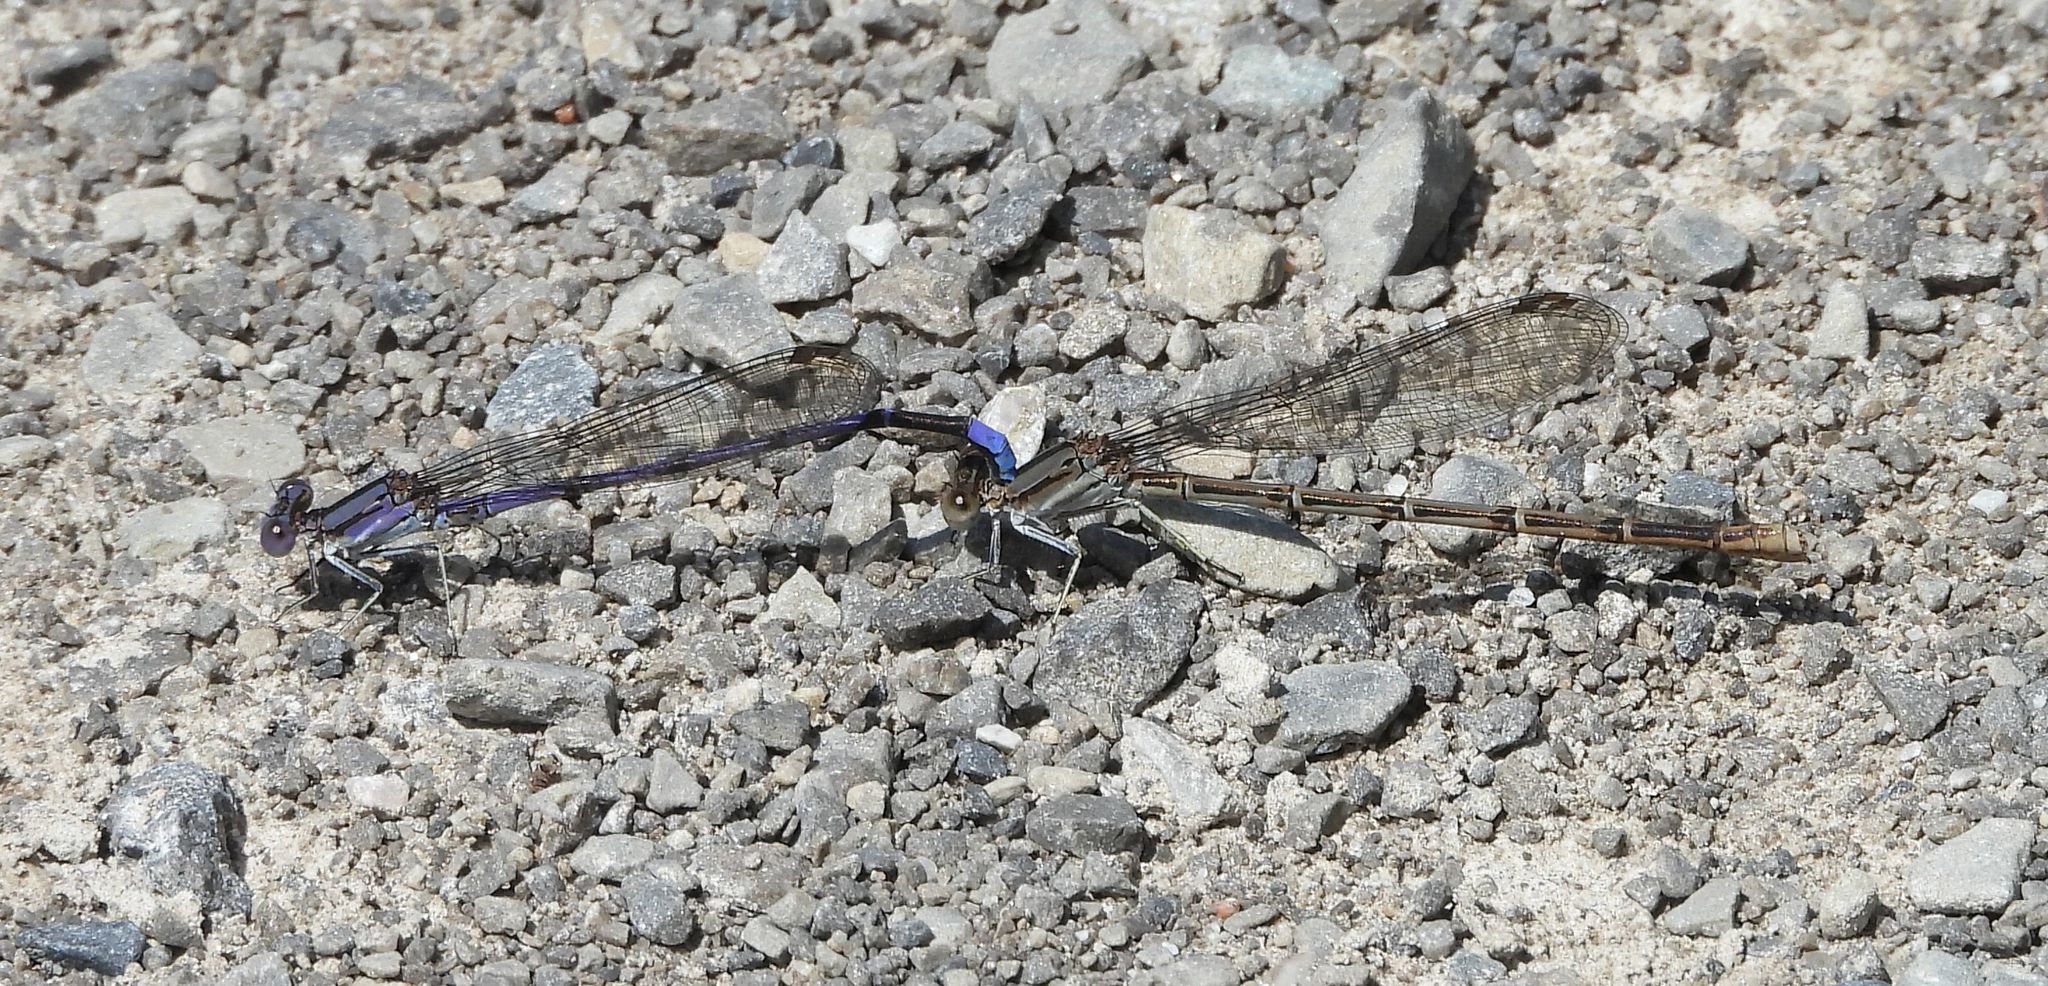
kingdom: Animalia
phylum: Arthropoda
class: Insecta
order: Odonata
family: Coenagrionidae
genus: Argia
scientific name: Argia fumipennis
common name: Variable dancer
